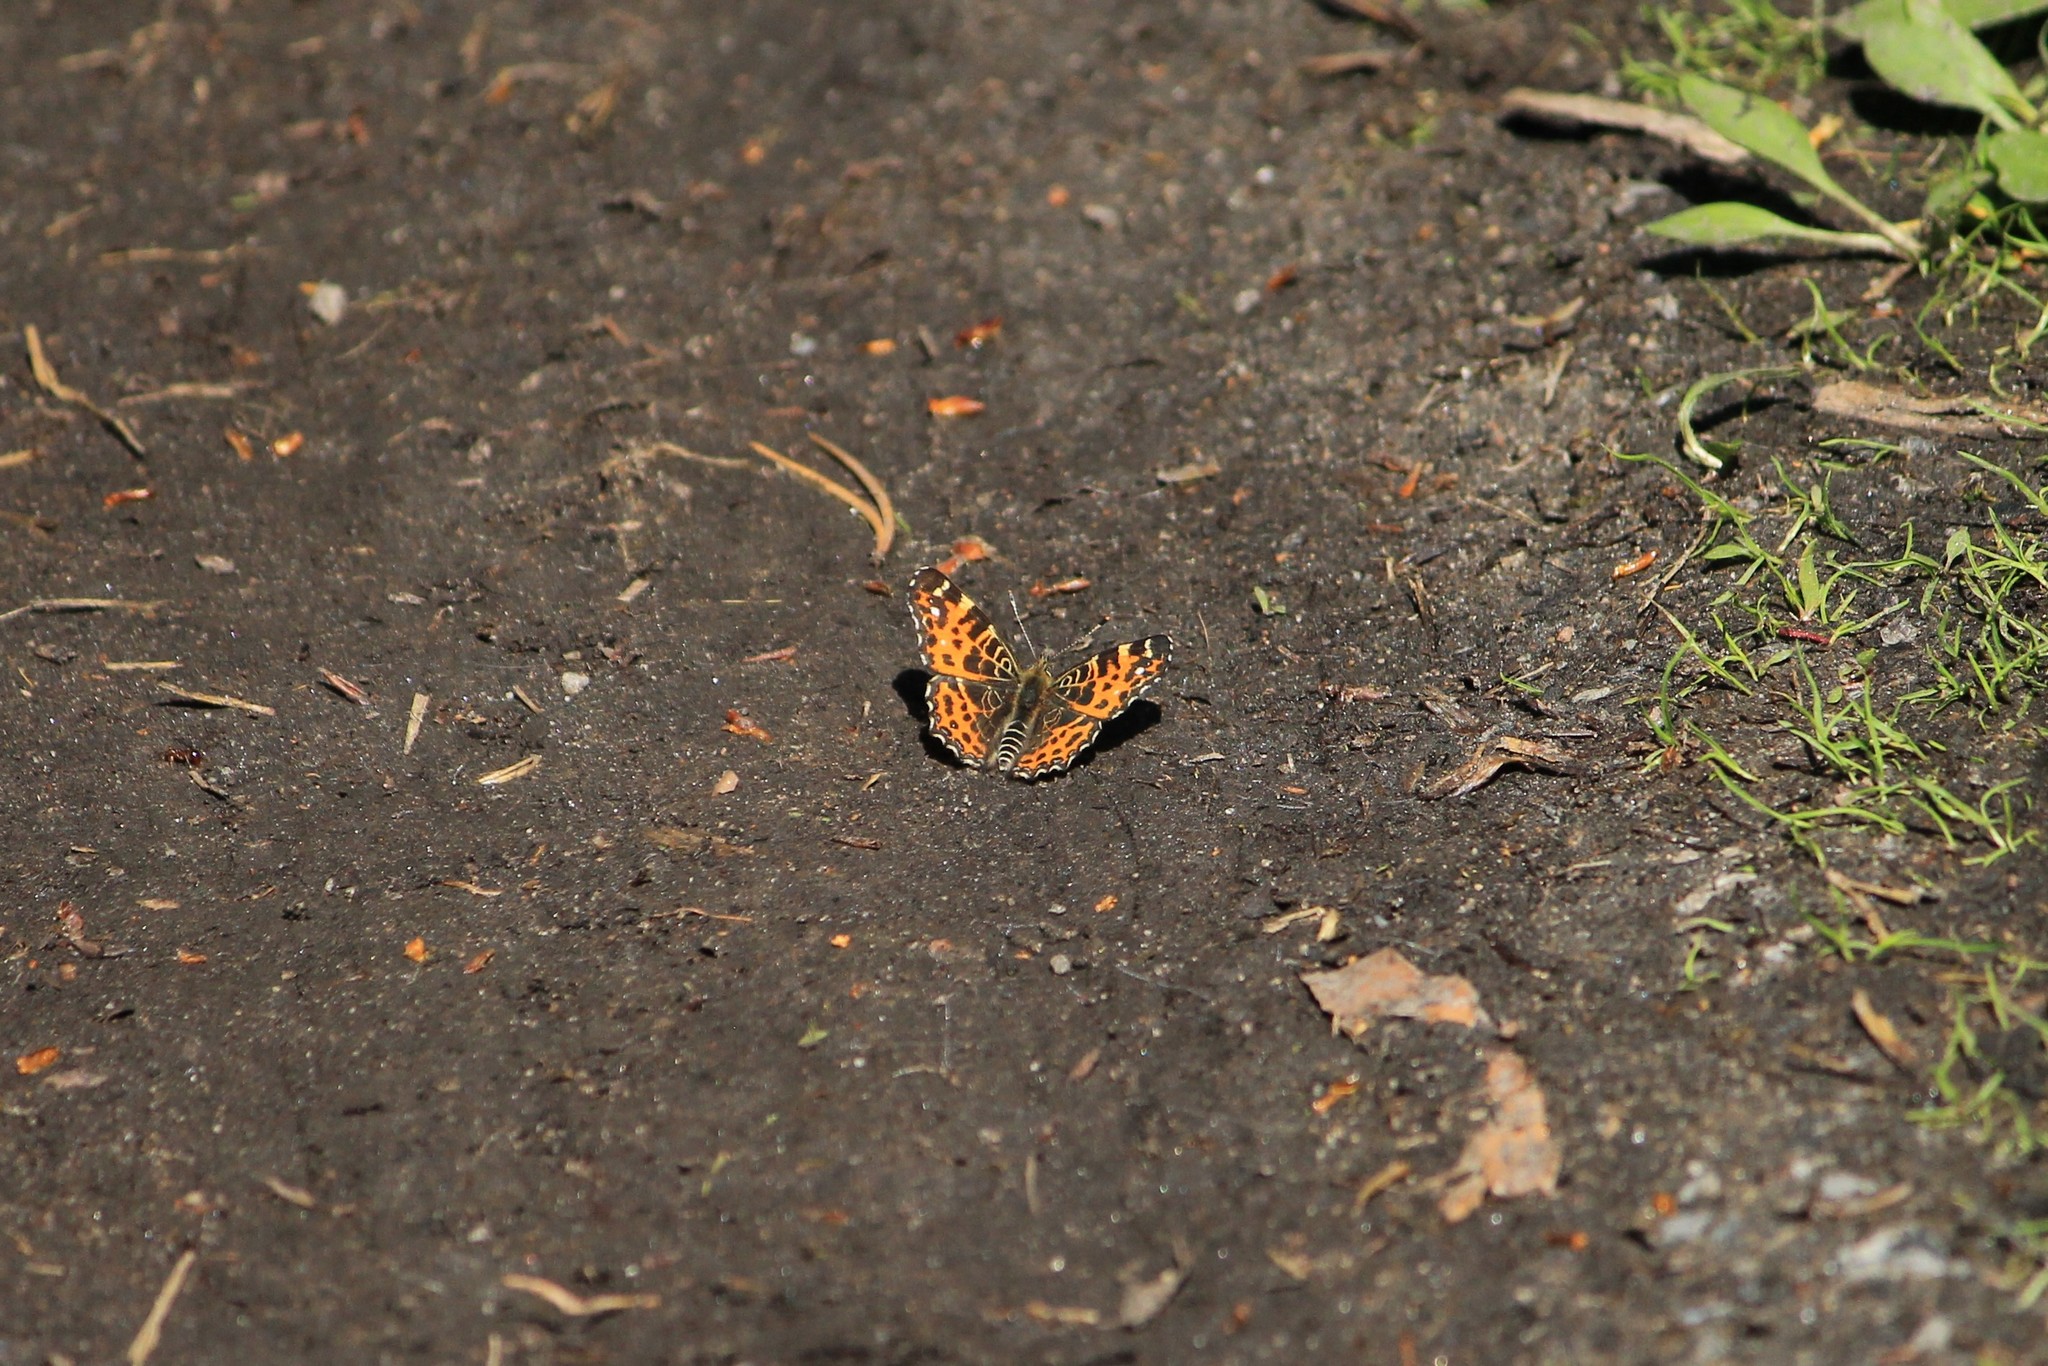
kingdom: Animalia
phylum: Arthropoda
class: Insecta
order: Lepidoptera
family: Nymphalidae
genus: Araschnia
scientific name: Araschnia levana
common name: Map butterfly
